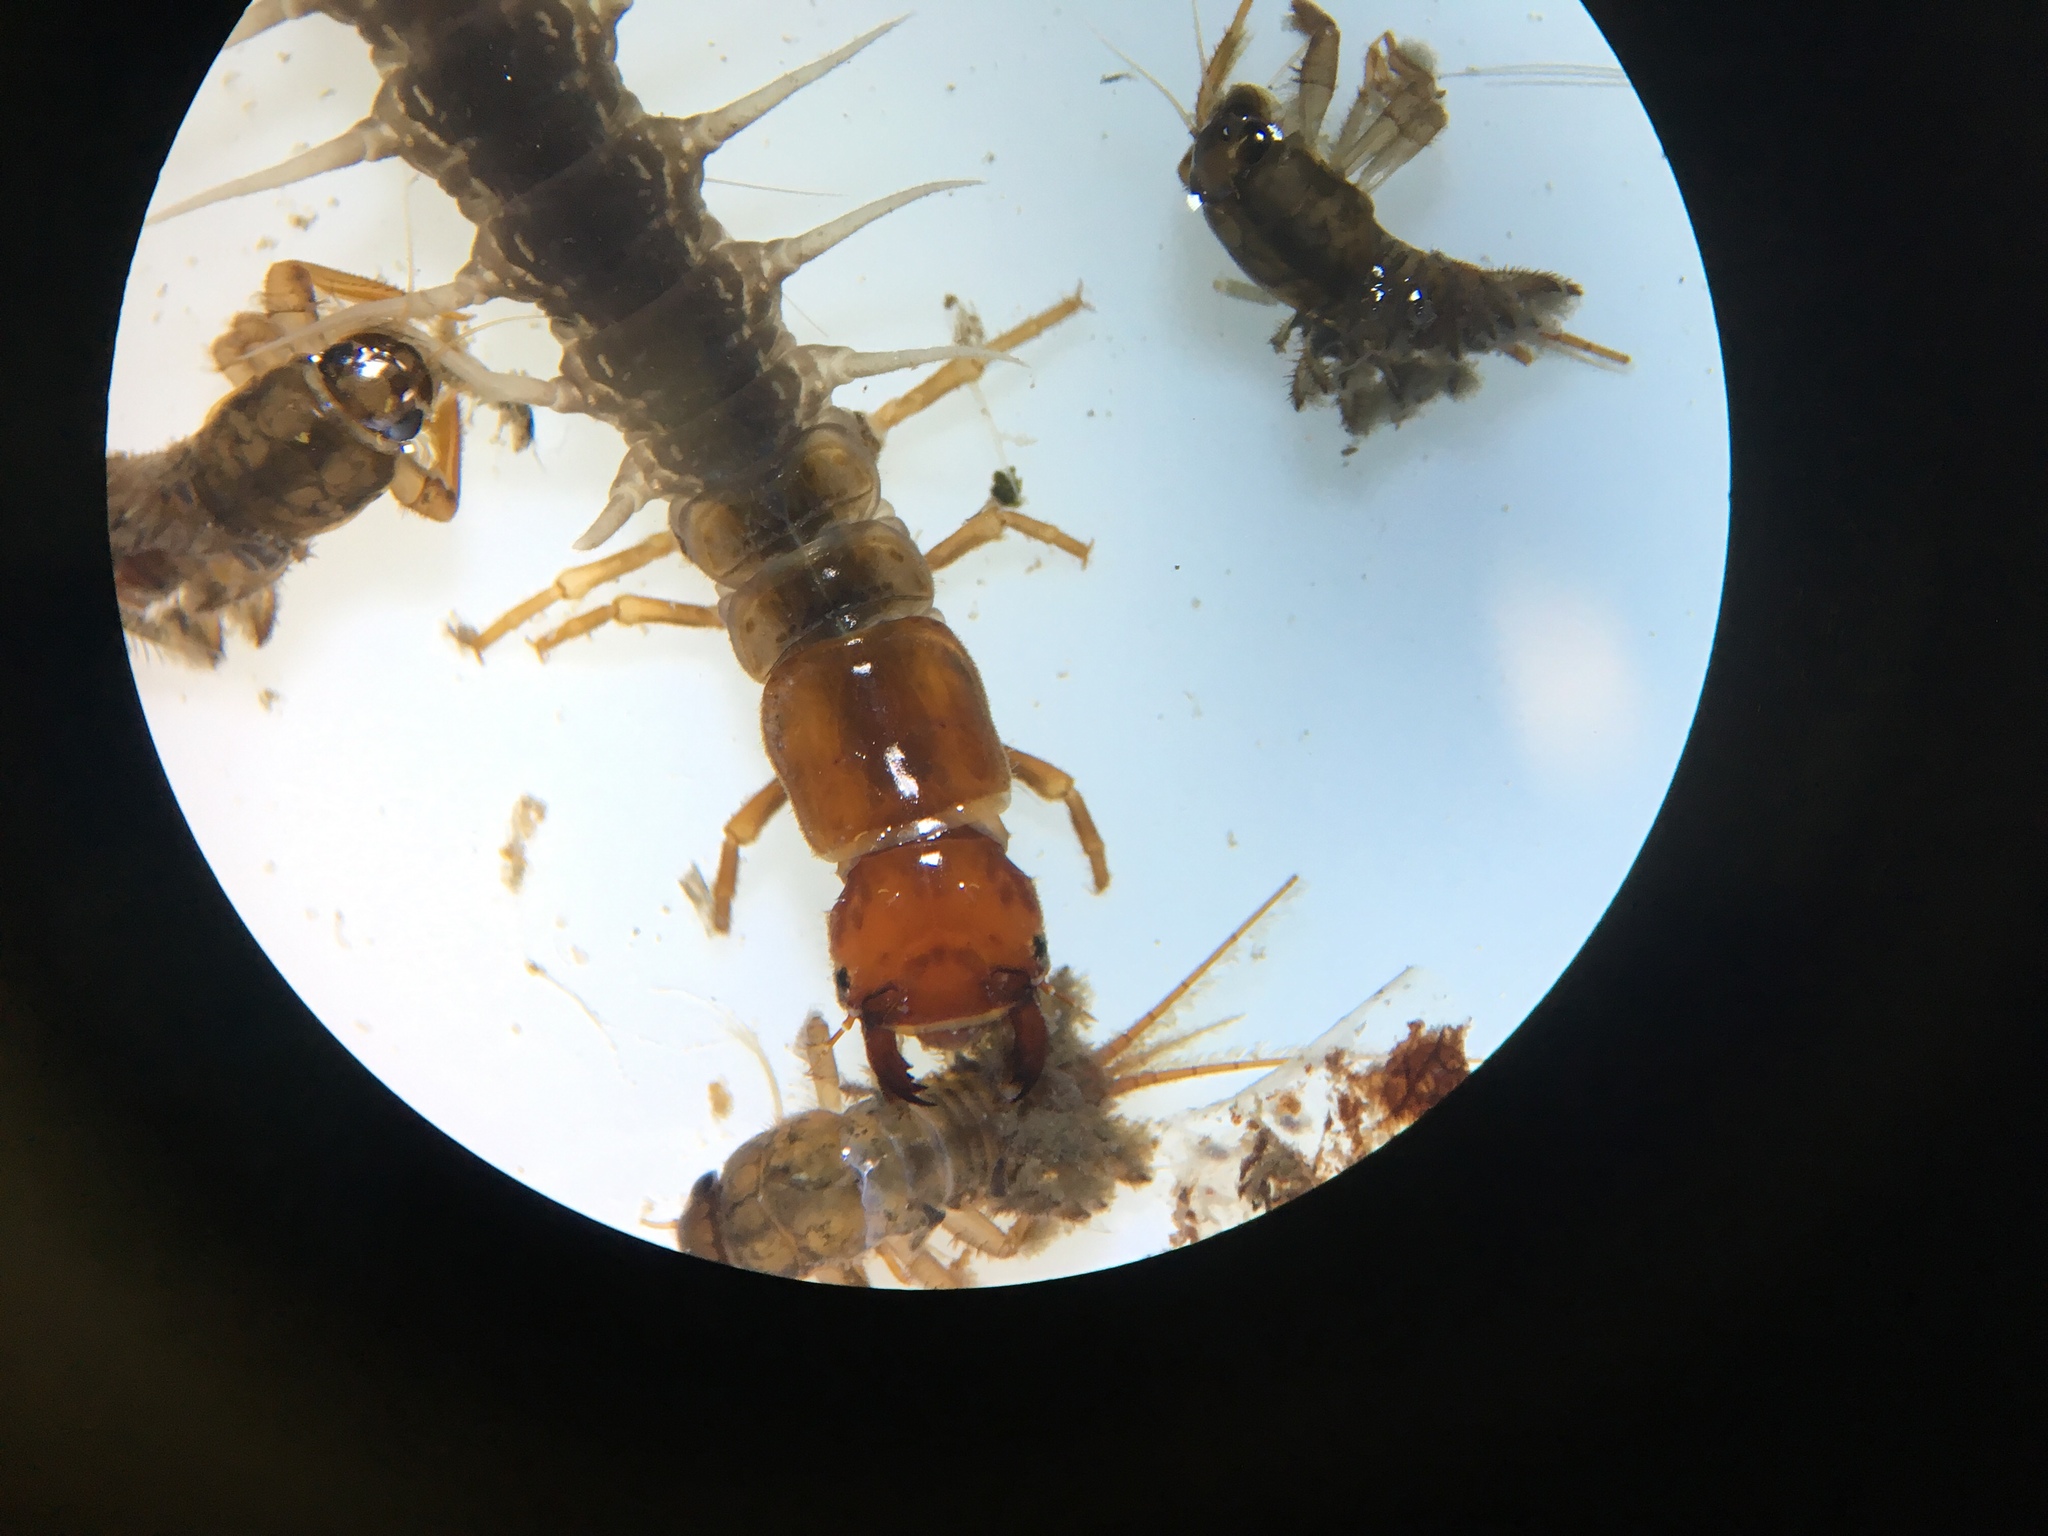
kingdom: Animalia
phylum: Arthropoda
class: Insecta
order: Megaloptera
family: Corydalidae
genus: Archichauliodes
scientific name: Archichauliodes diversus
